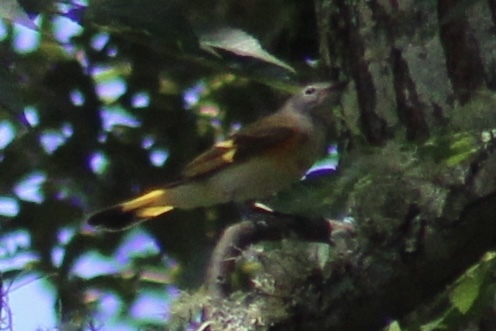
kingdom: Animalia
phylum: Chordata
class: Aves
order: Passeriformes
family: Parulidae
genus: Setophaga
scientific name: Setophaga ruticilla
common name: American redstart
